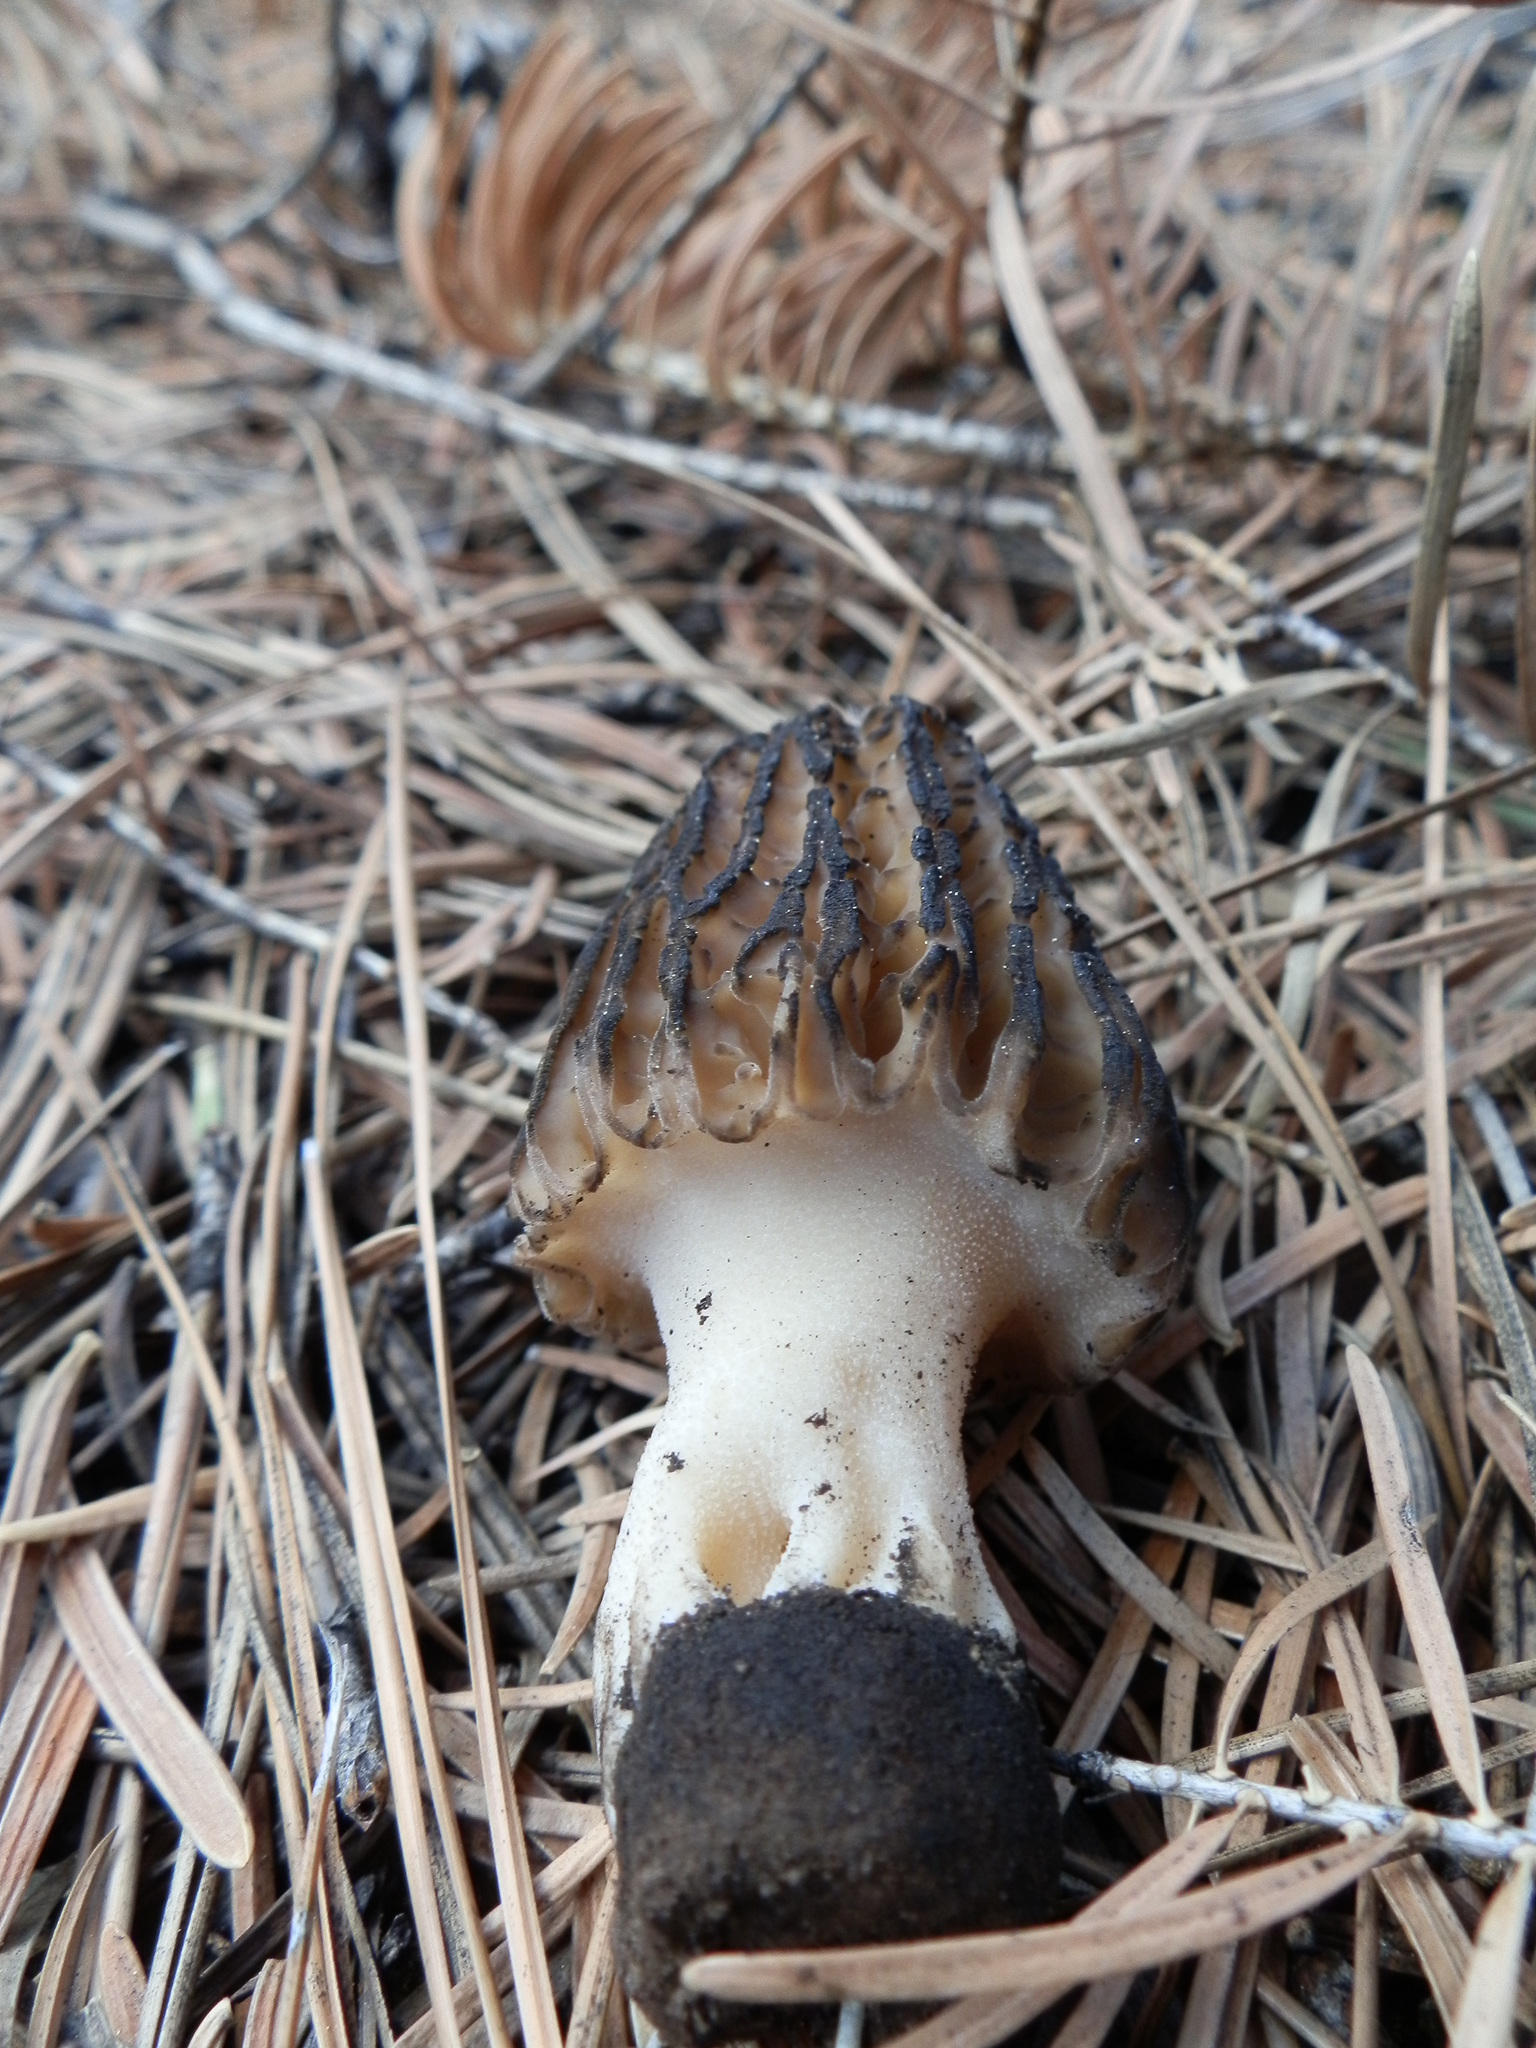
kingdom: Fungi
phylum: Ascomycota
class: Pezizomycetes
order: Pezizales
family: Morchellaceae
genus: Morchella
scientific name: Morchella sextelata
